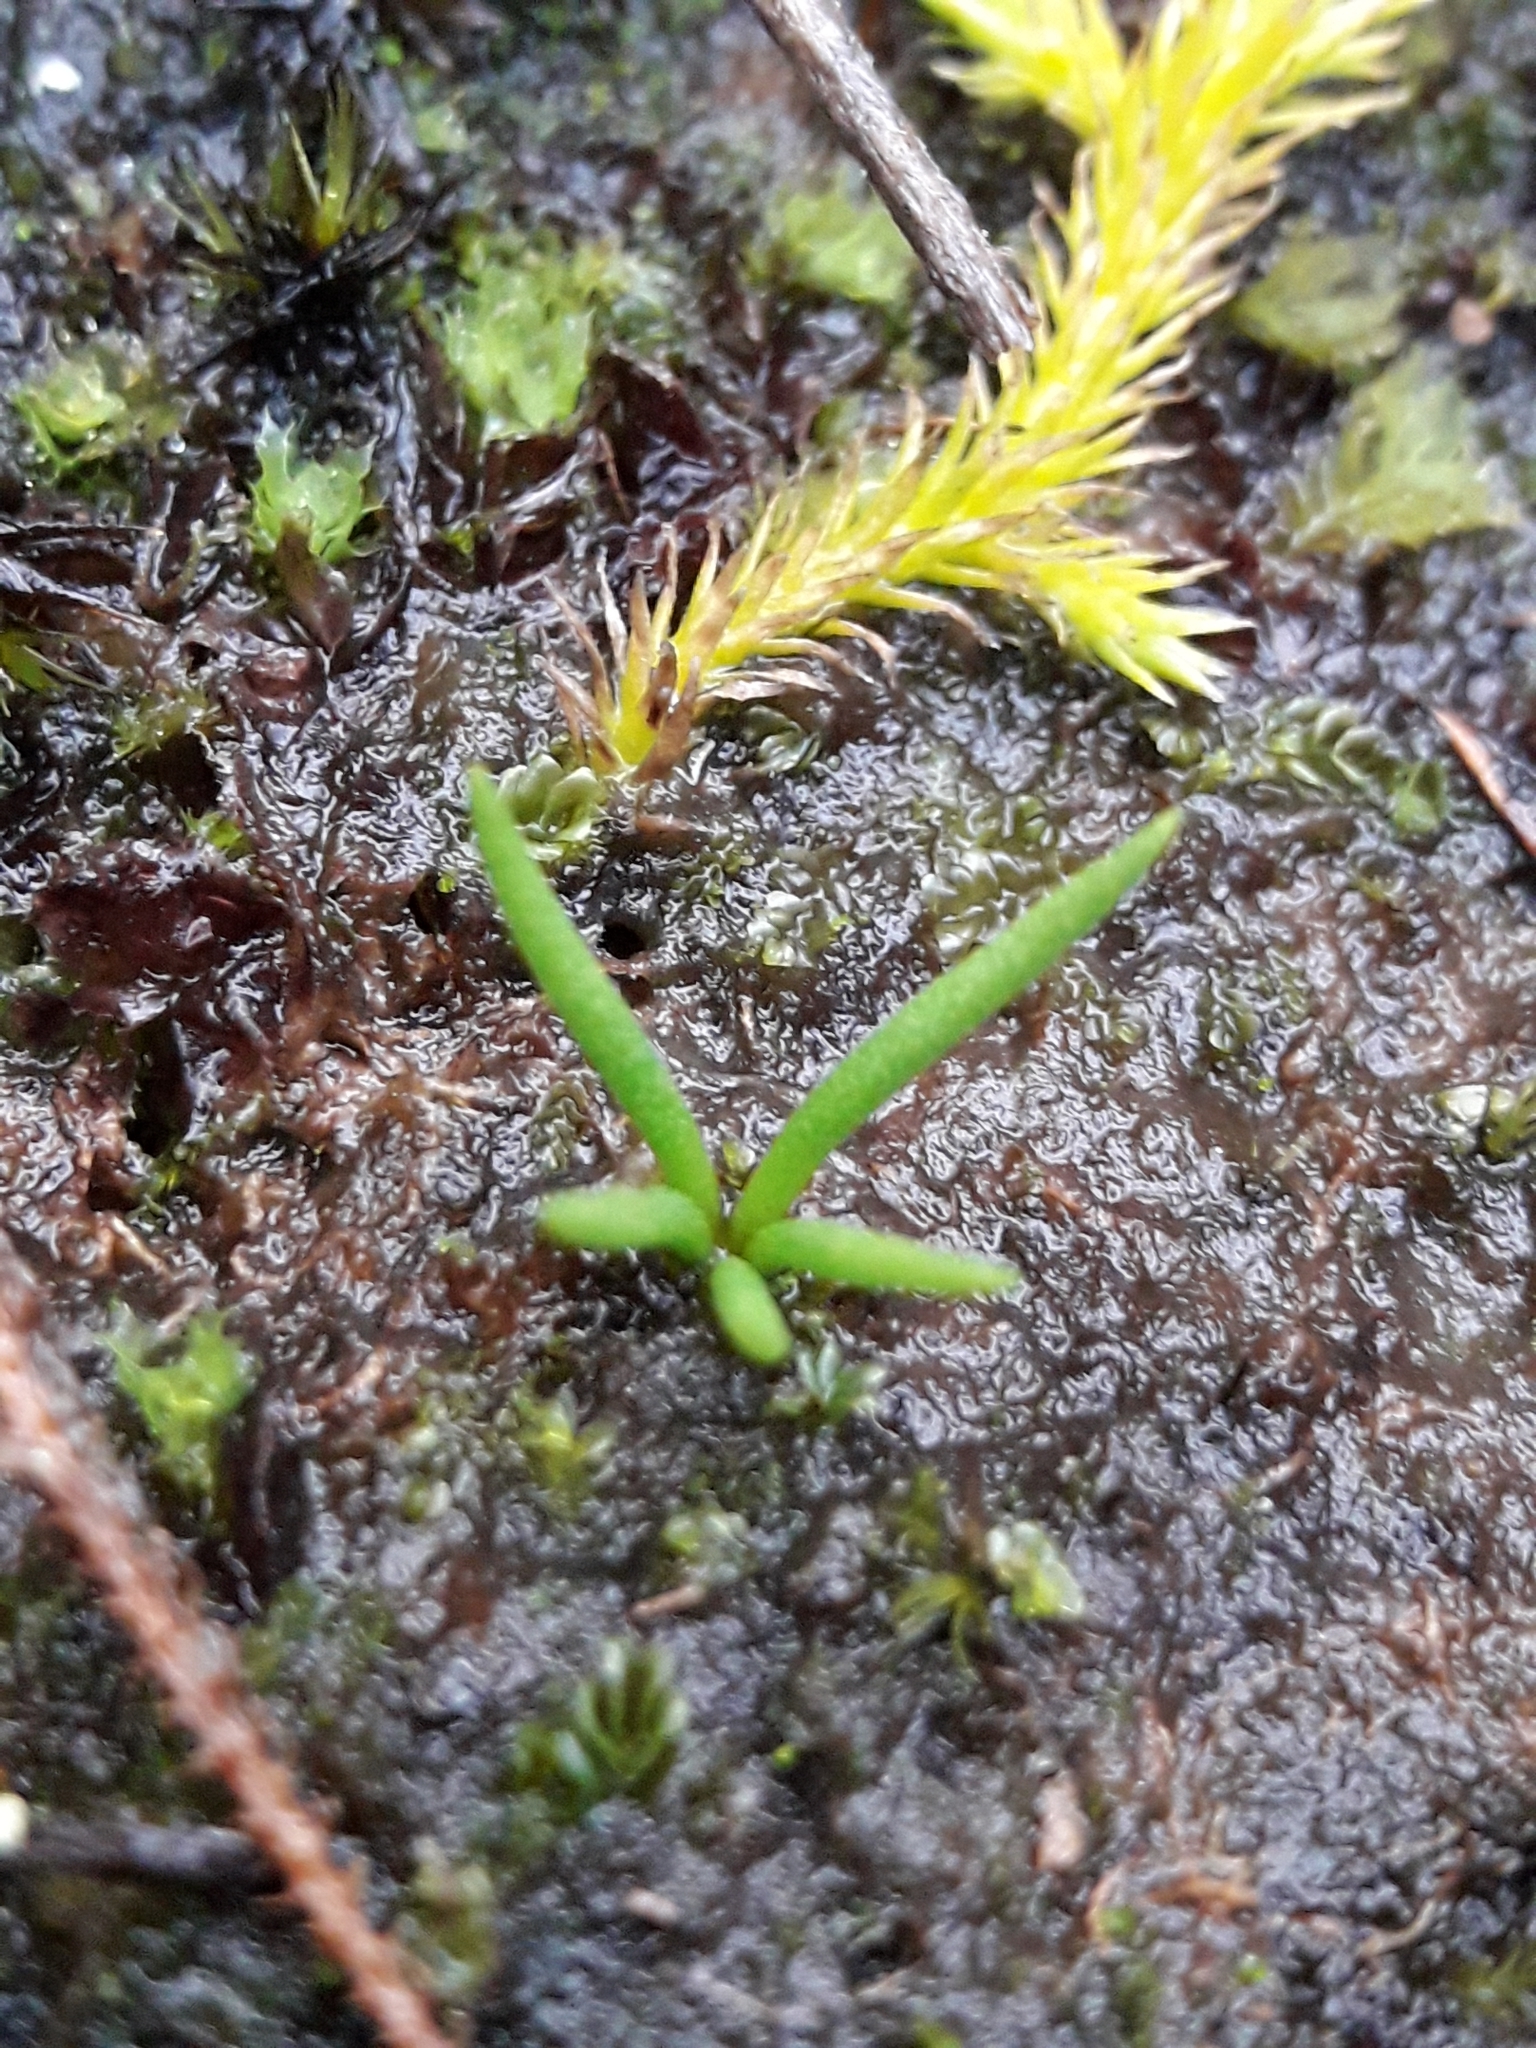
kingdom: Plantae
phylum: Tracheophyta
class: Lycopodiopsida
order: Lycopodiales
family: Lycopodiaceae
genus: Phylloglossum
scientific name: Phylloglossum drummondii
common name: Pigmy-club-moss
